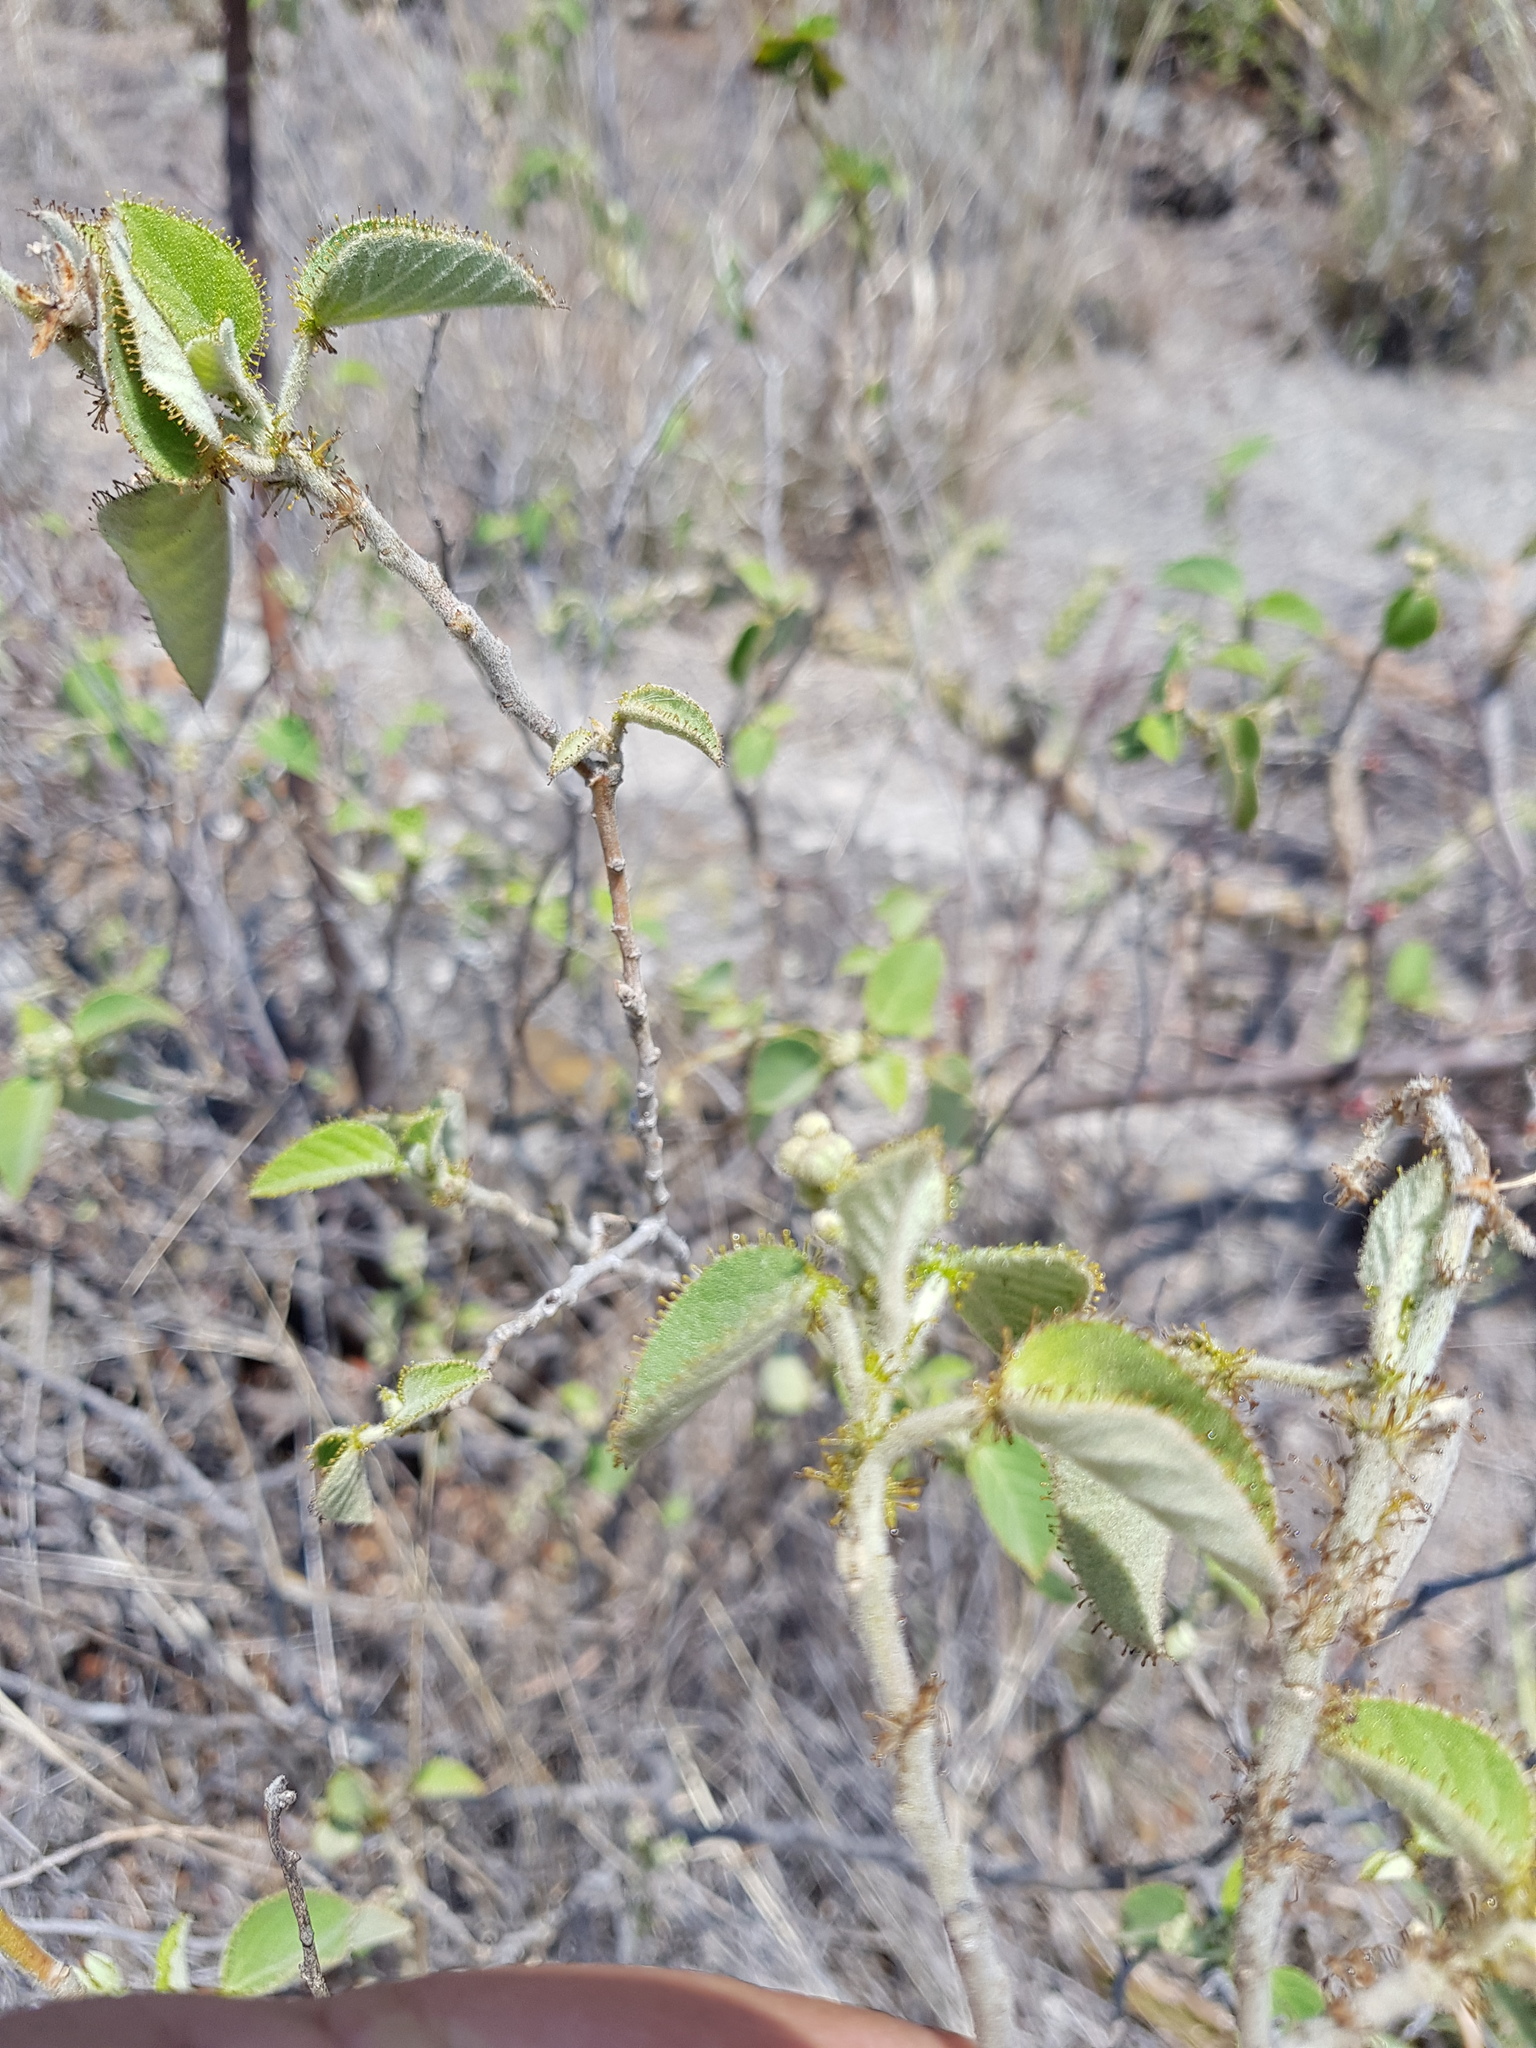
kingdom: Plantae
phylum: Tracheophyta
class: Magnoliopsida
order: Malpighiales
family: Euphorbiaceae
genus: Croton
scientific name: Croton ciliatoglandulifer
